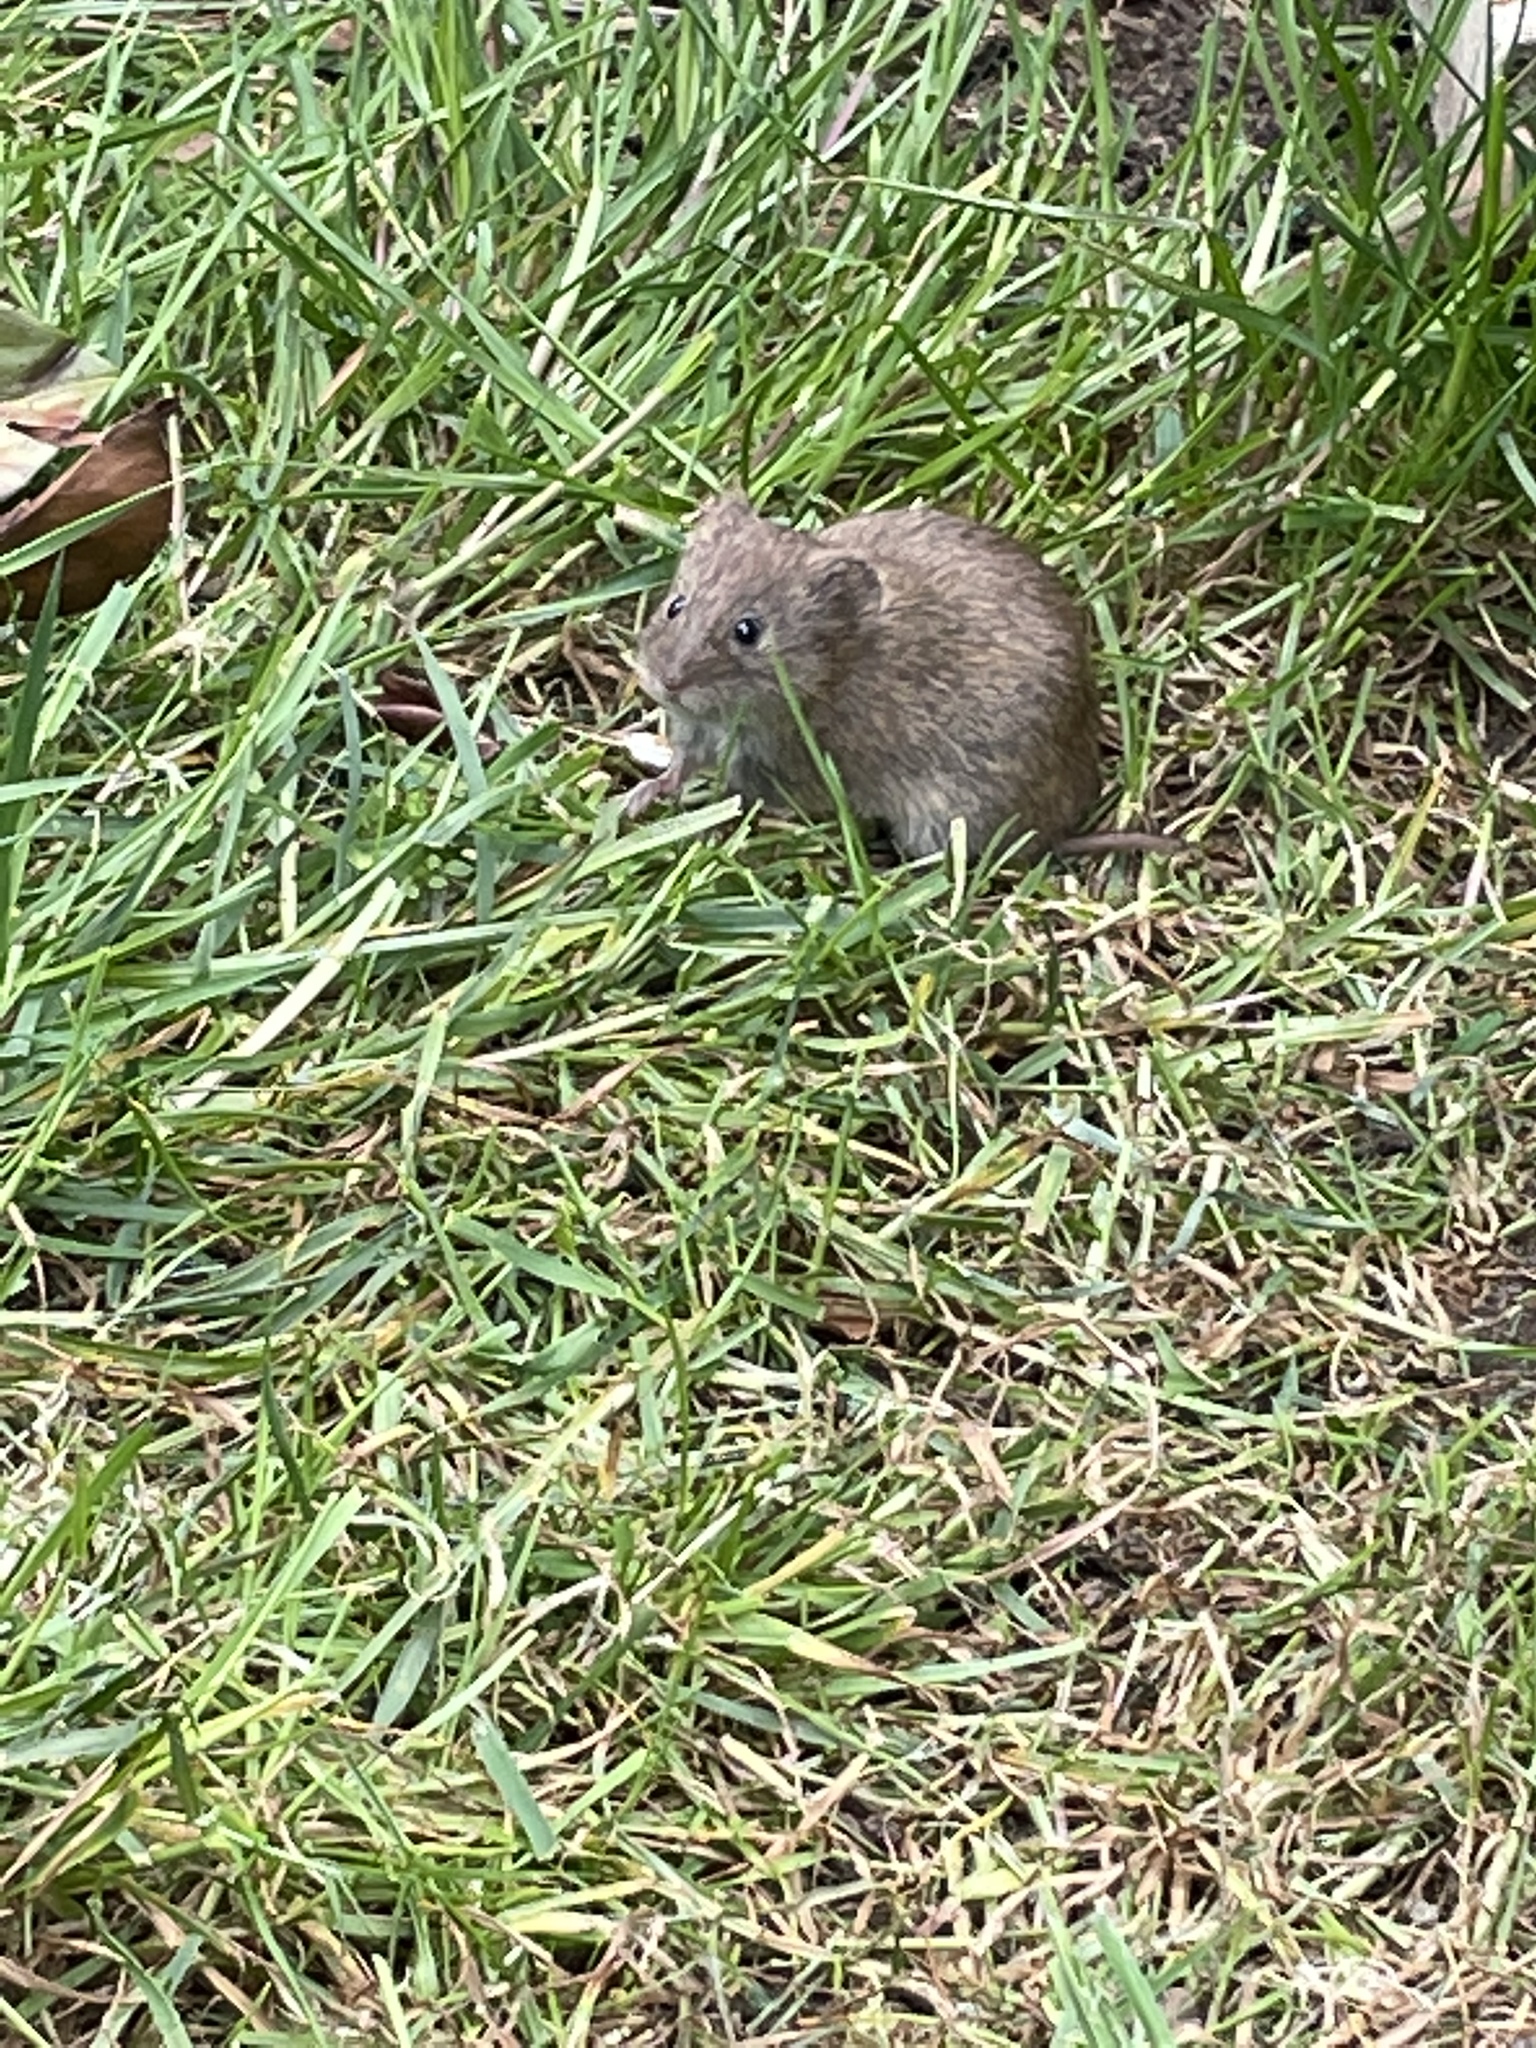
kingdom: Animalia
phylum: Chordata
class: Mammalia
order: Rodentia
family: Cricetidae
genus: Microtus
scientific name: Microtus agrestis
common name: Field vole
